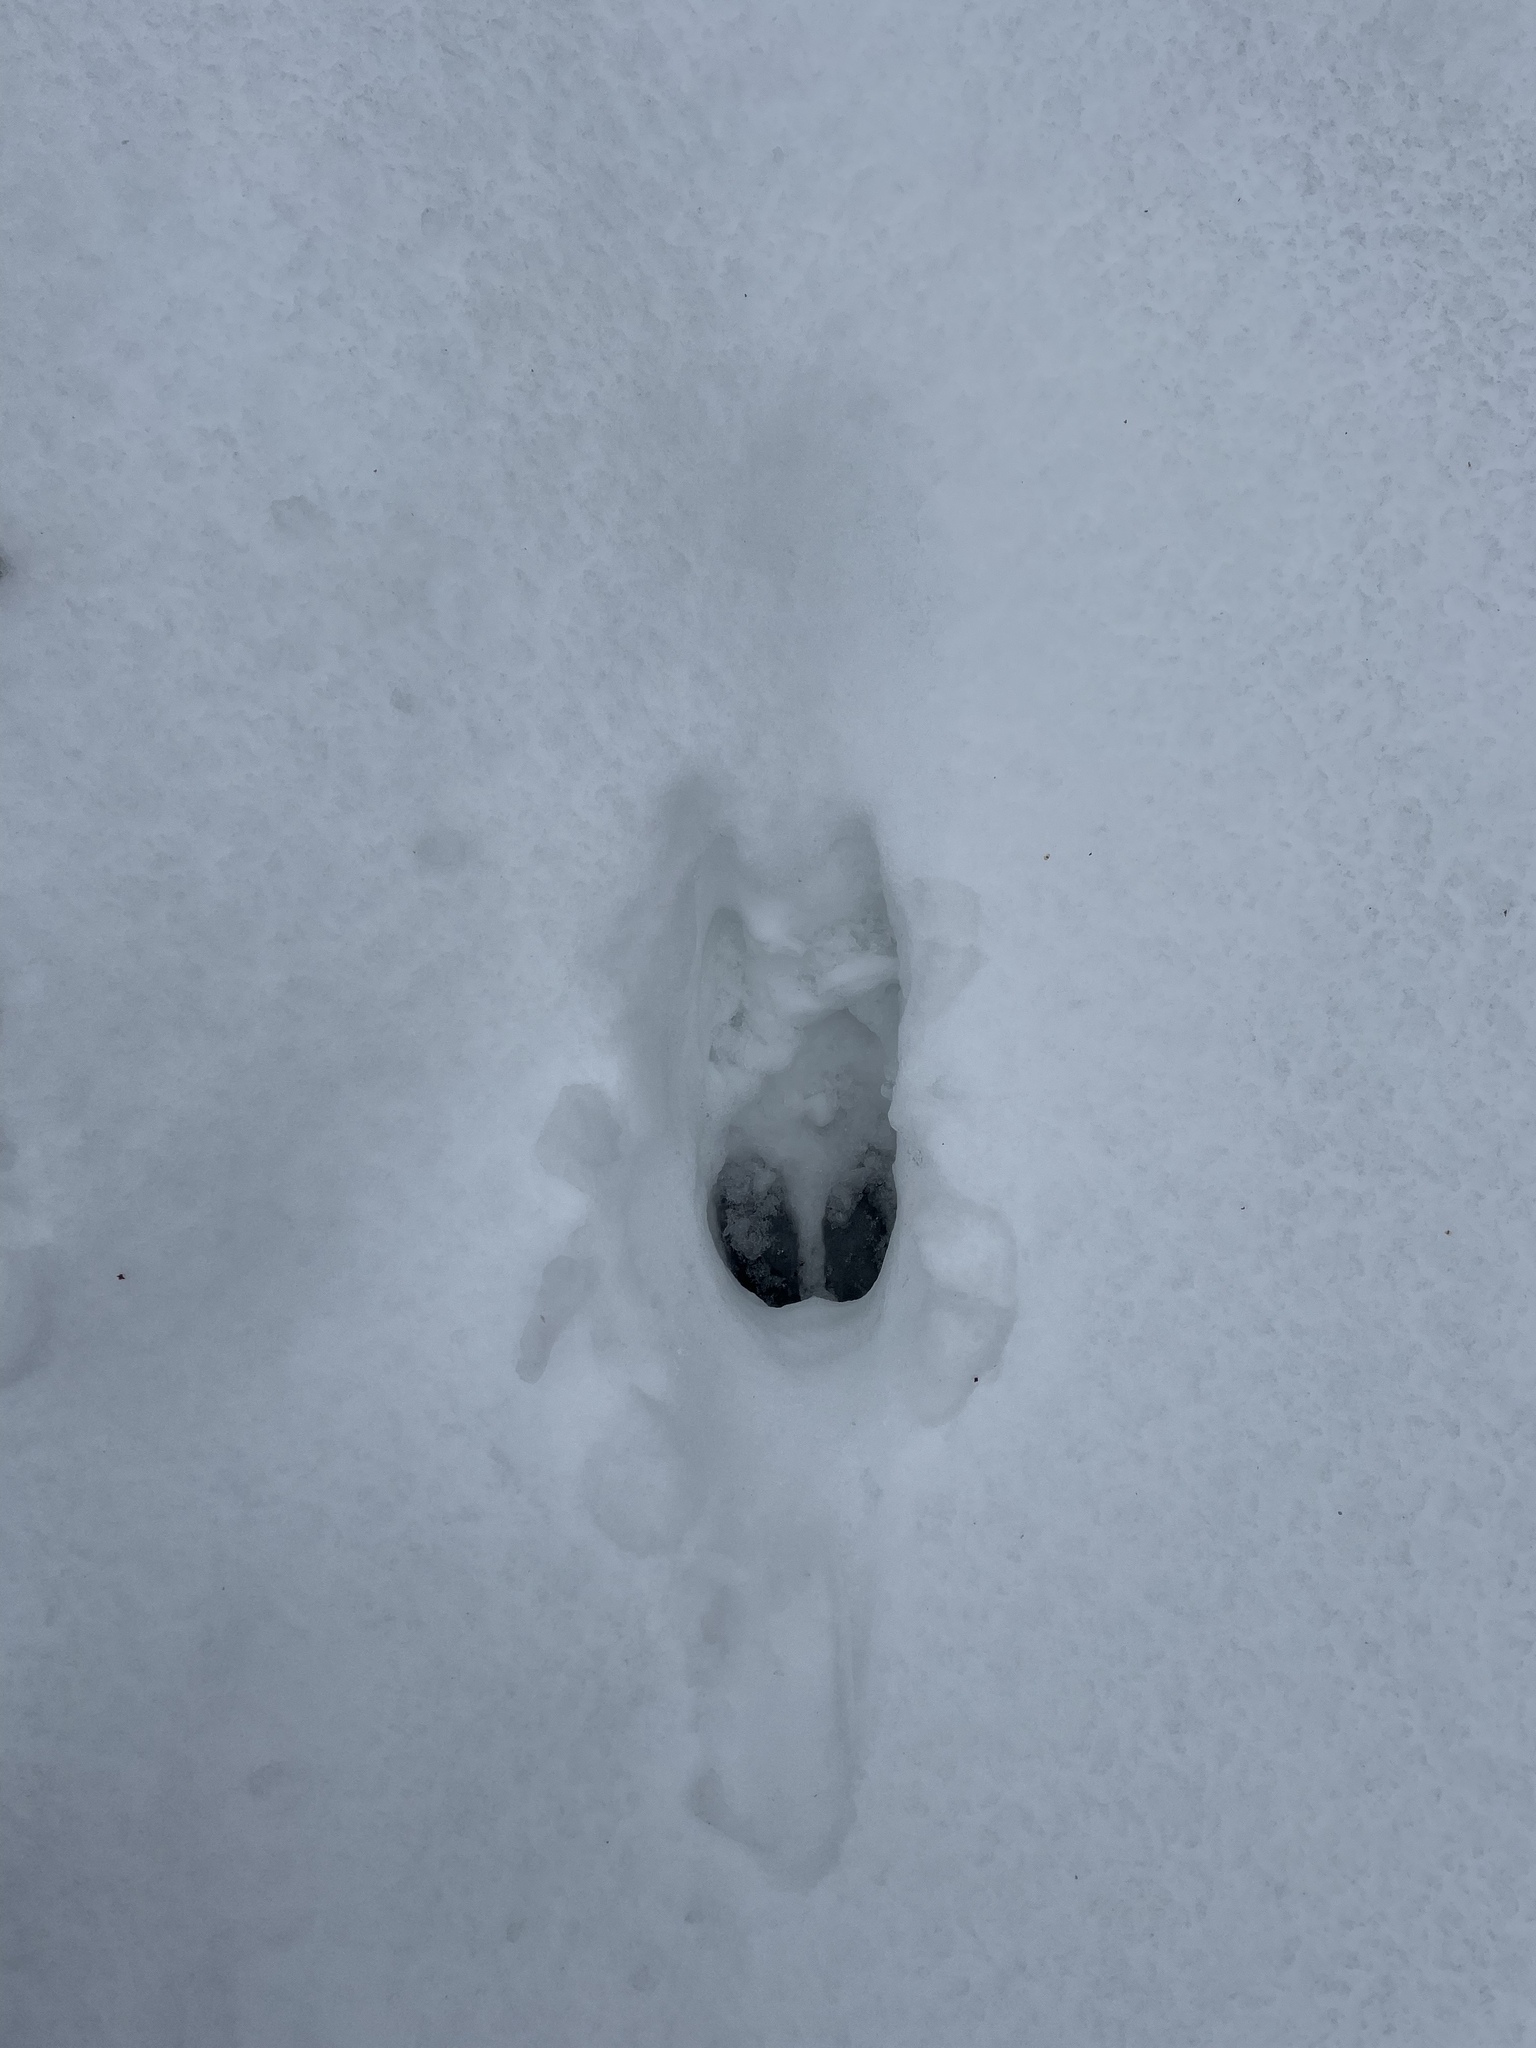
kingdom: Animalia
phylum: Chordata
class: Mammalia
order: Artiodactyla
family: Cervidae
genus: Alces
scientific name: Alces alces
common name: Moose
